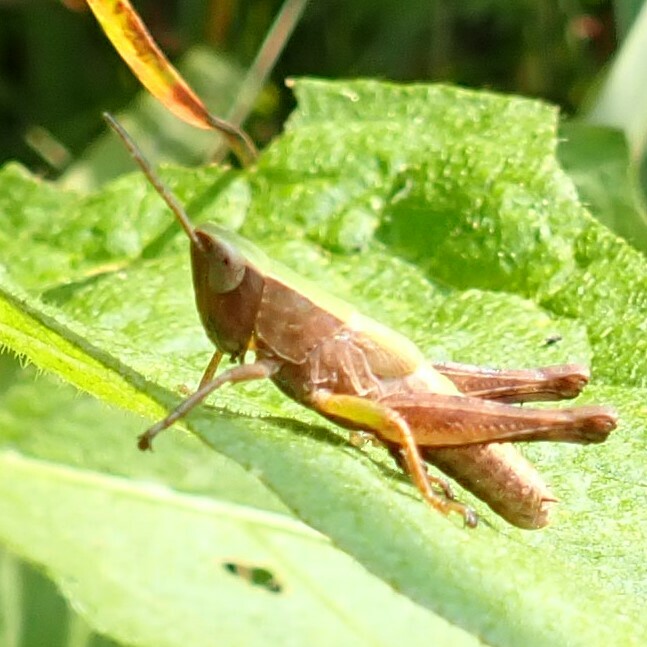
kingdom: Animalia
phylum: Arthropoda
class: Insecta
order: Orthoptera
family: Acrididae
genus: Dichromorpha
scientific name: Dichromorpha viridis
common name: Short-winged green grasshopper
